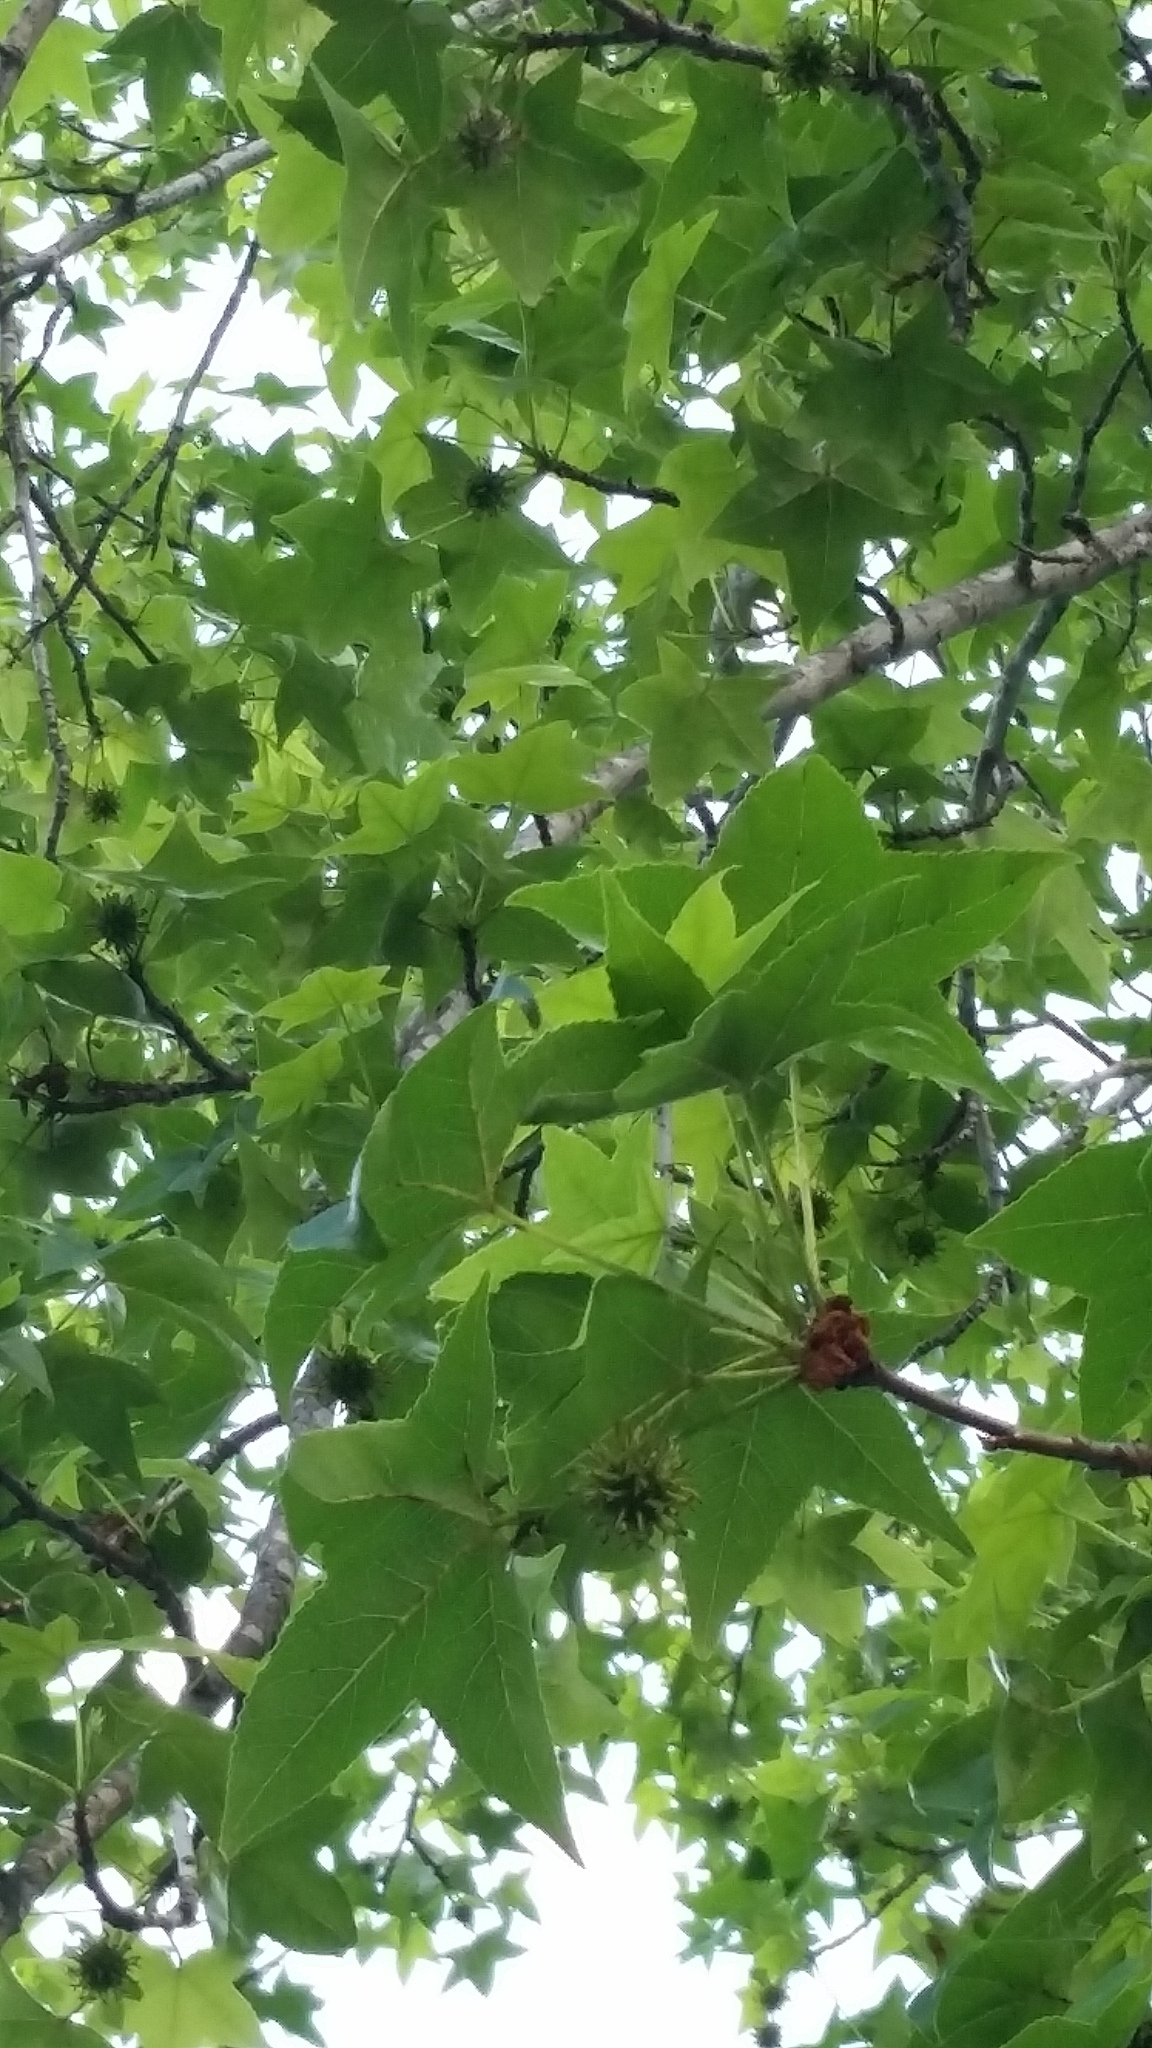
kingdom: Plantae
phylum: Tracheophyta
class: Magnoliopsida
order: Saxifragales
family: Altingiaceae
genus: Liquidambar
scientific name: Liquidambar styraciflua
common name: Sweet gum
